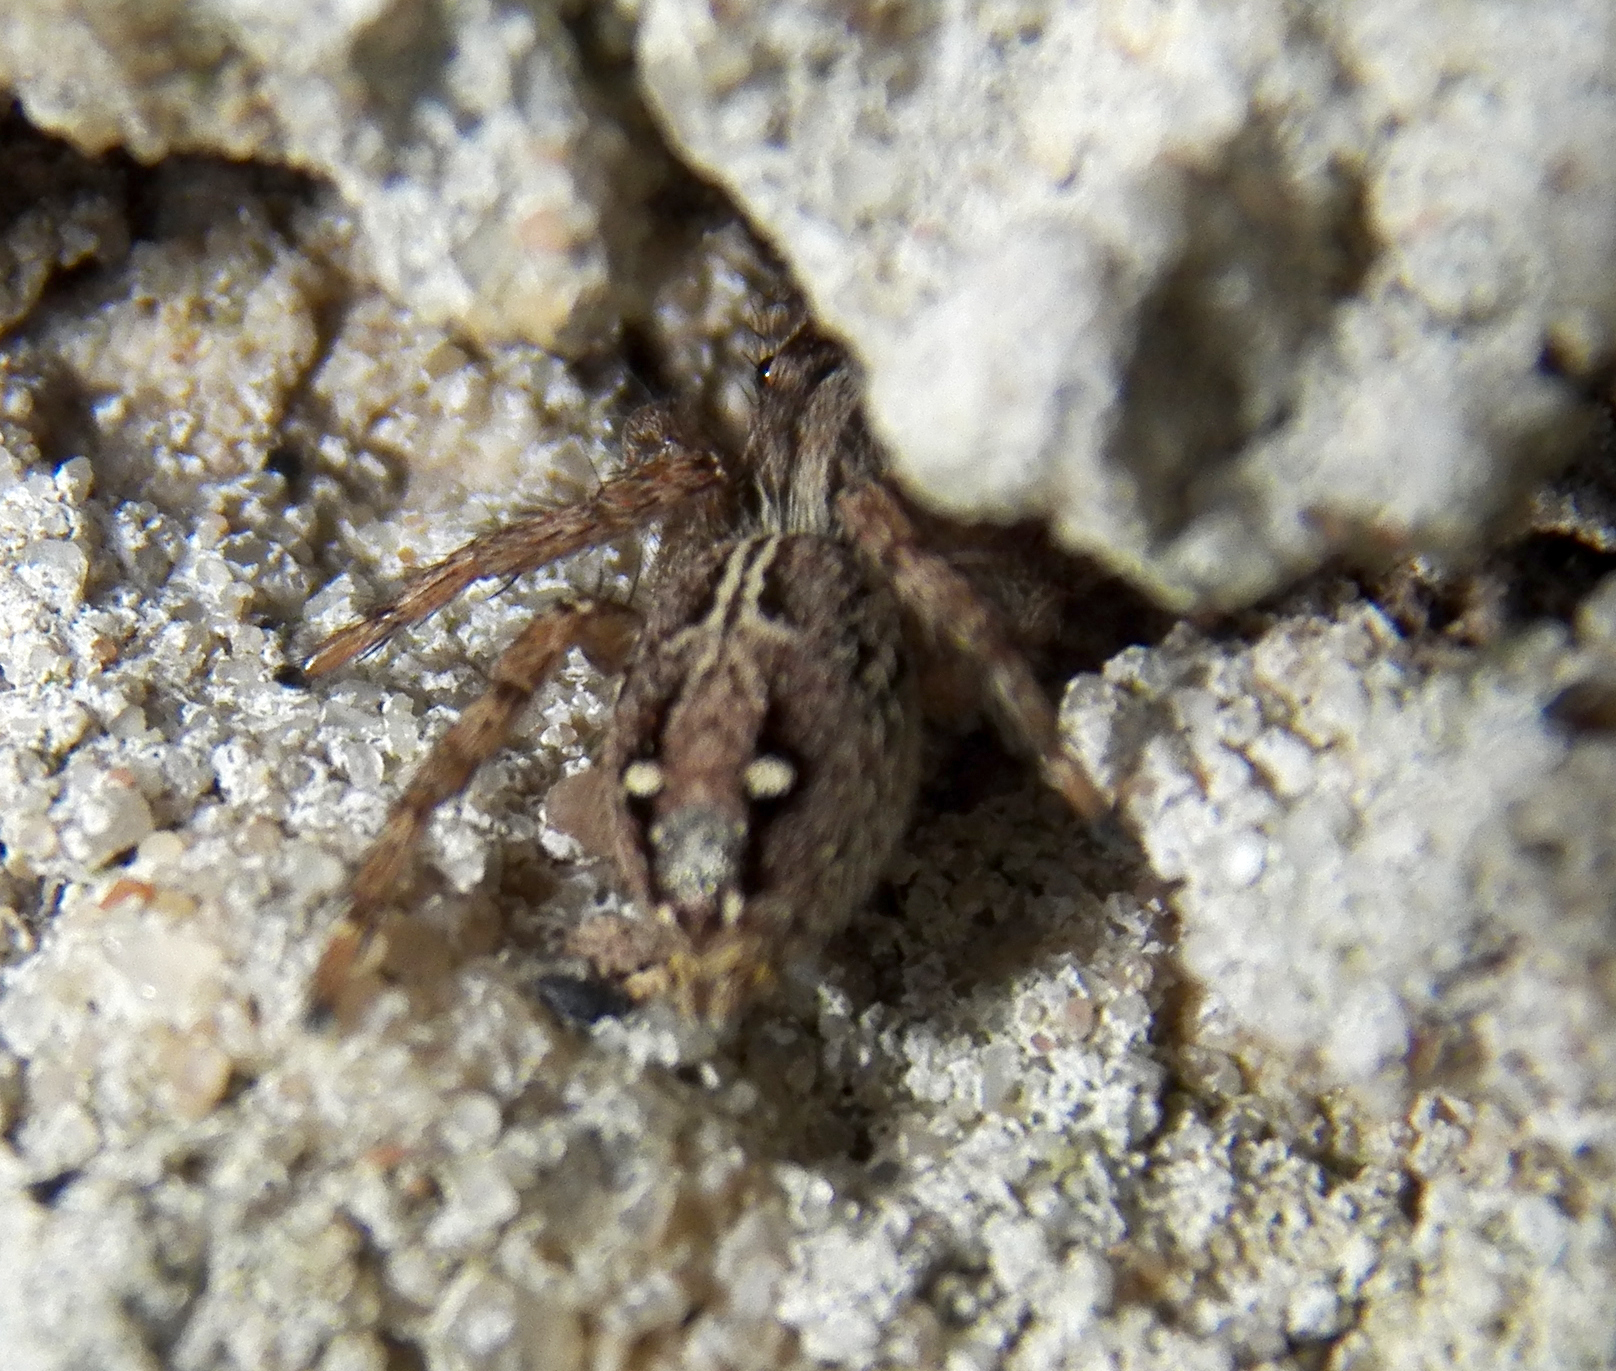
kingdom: Animalia
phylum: Arthropoda
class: Arachnida
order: Araneae
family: Salticidae
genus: Plexippus
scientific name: Plexippus paykulli
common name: Pantropical jumper
